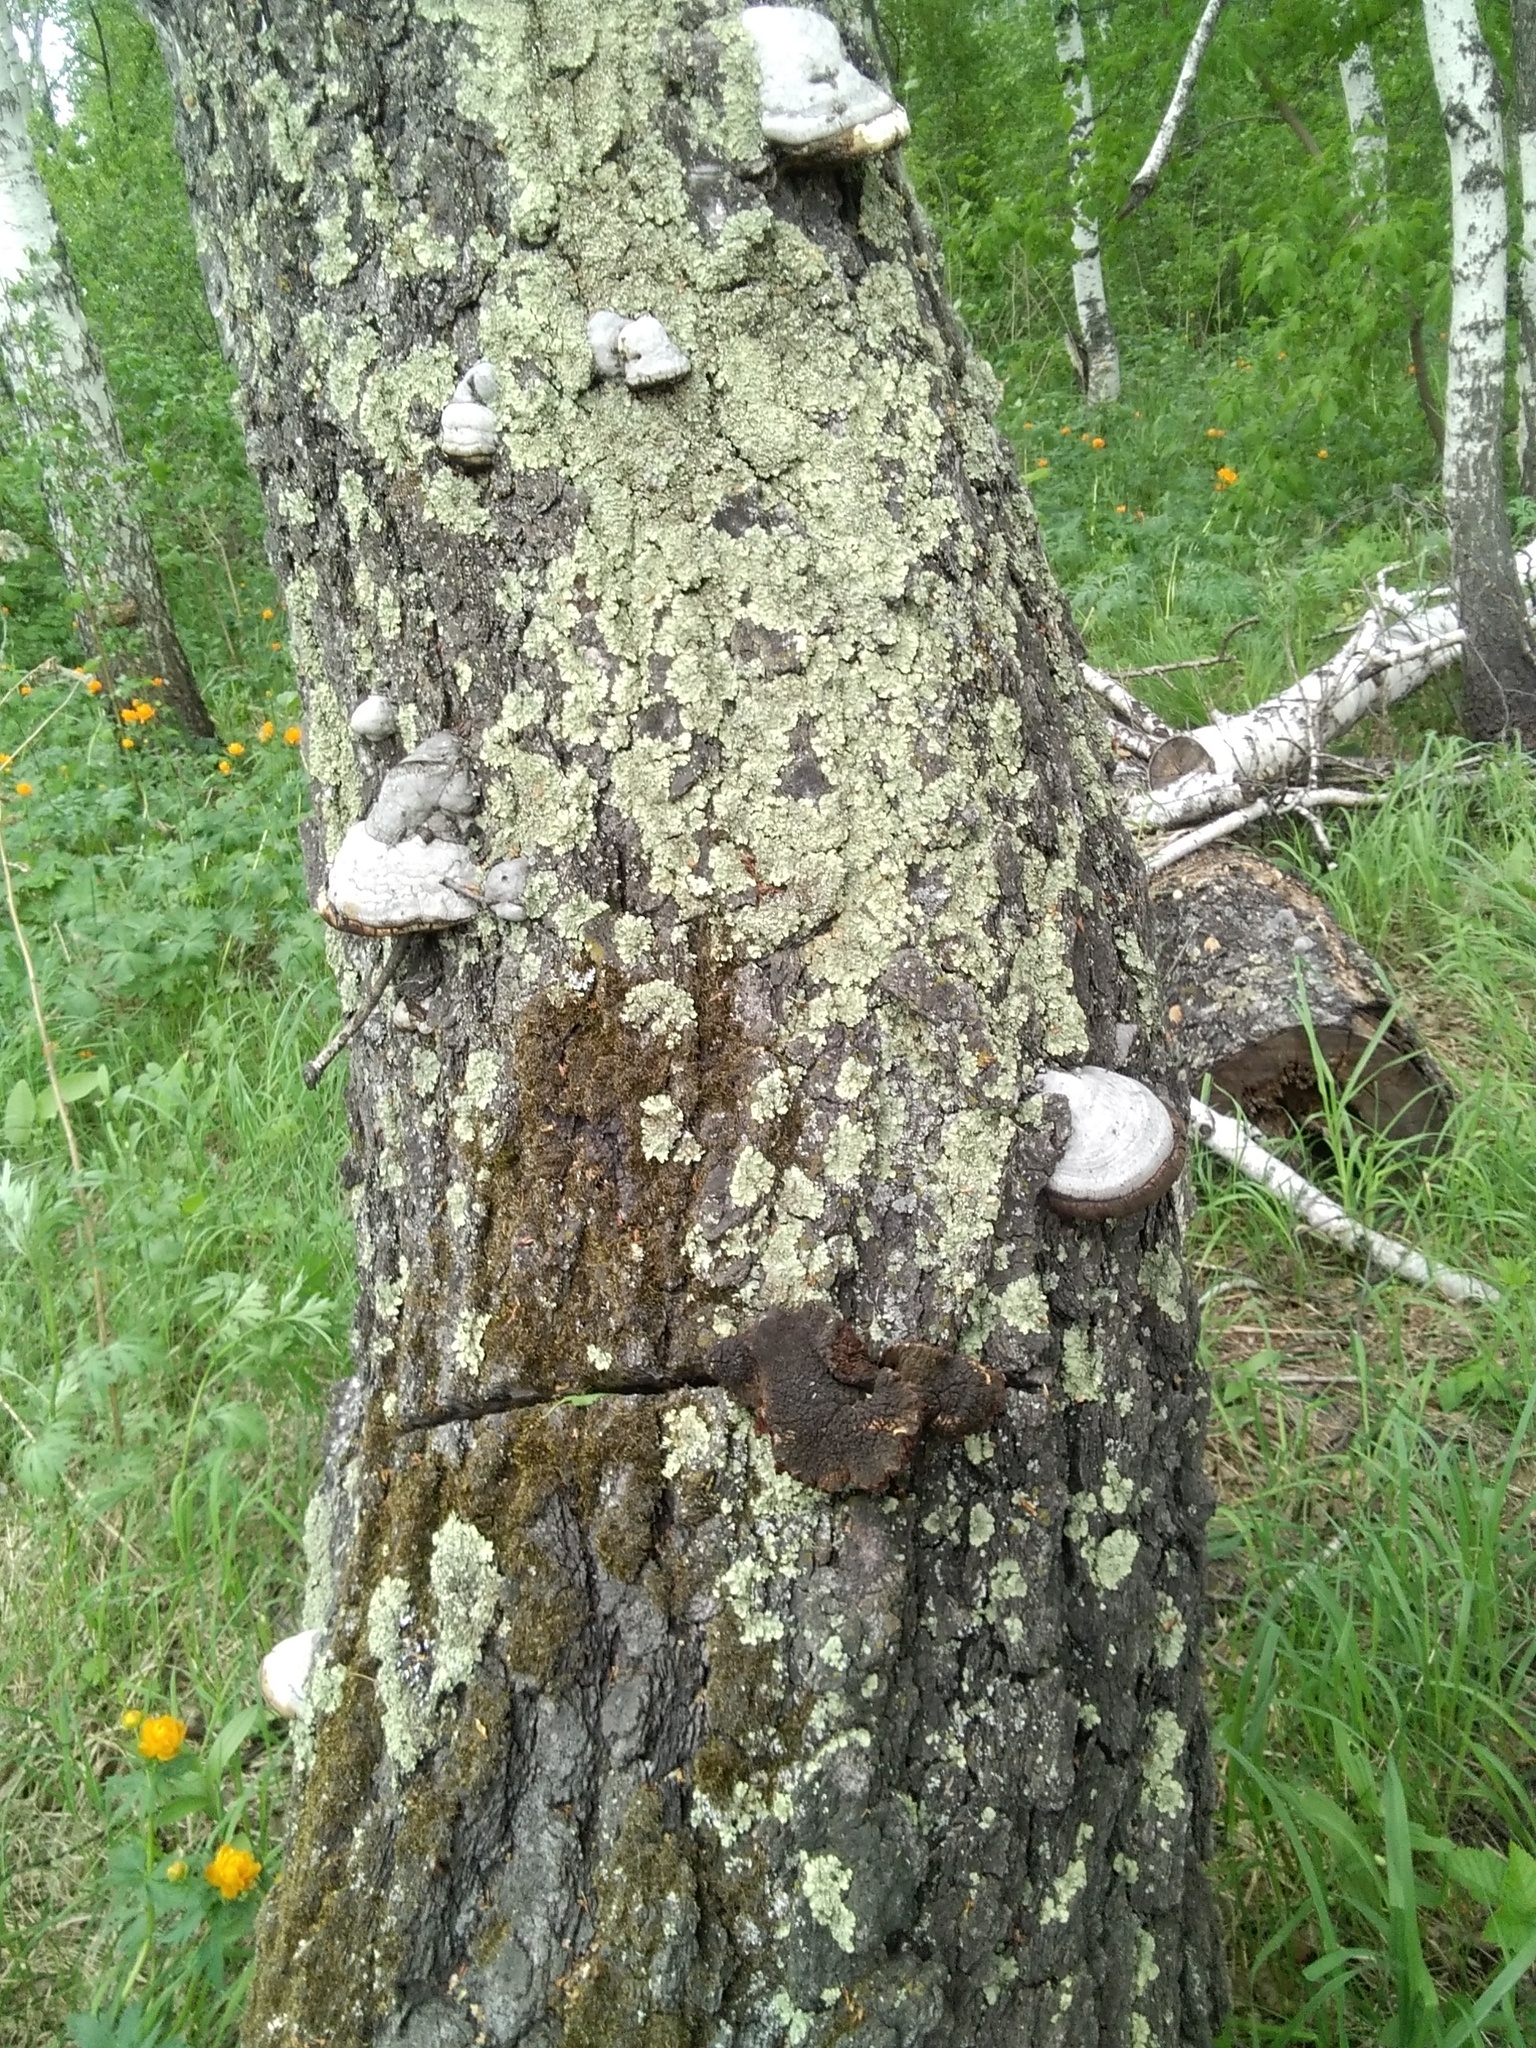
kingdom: Fungi
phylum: Basidiomycota
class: Agaricomycetes
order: Polyporales
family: Polyporaceae
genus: Fomes
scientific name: Fomes fomentarius
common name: Hoof fungus
